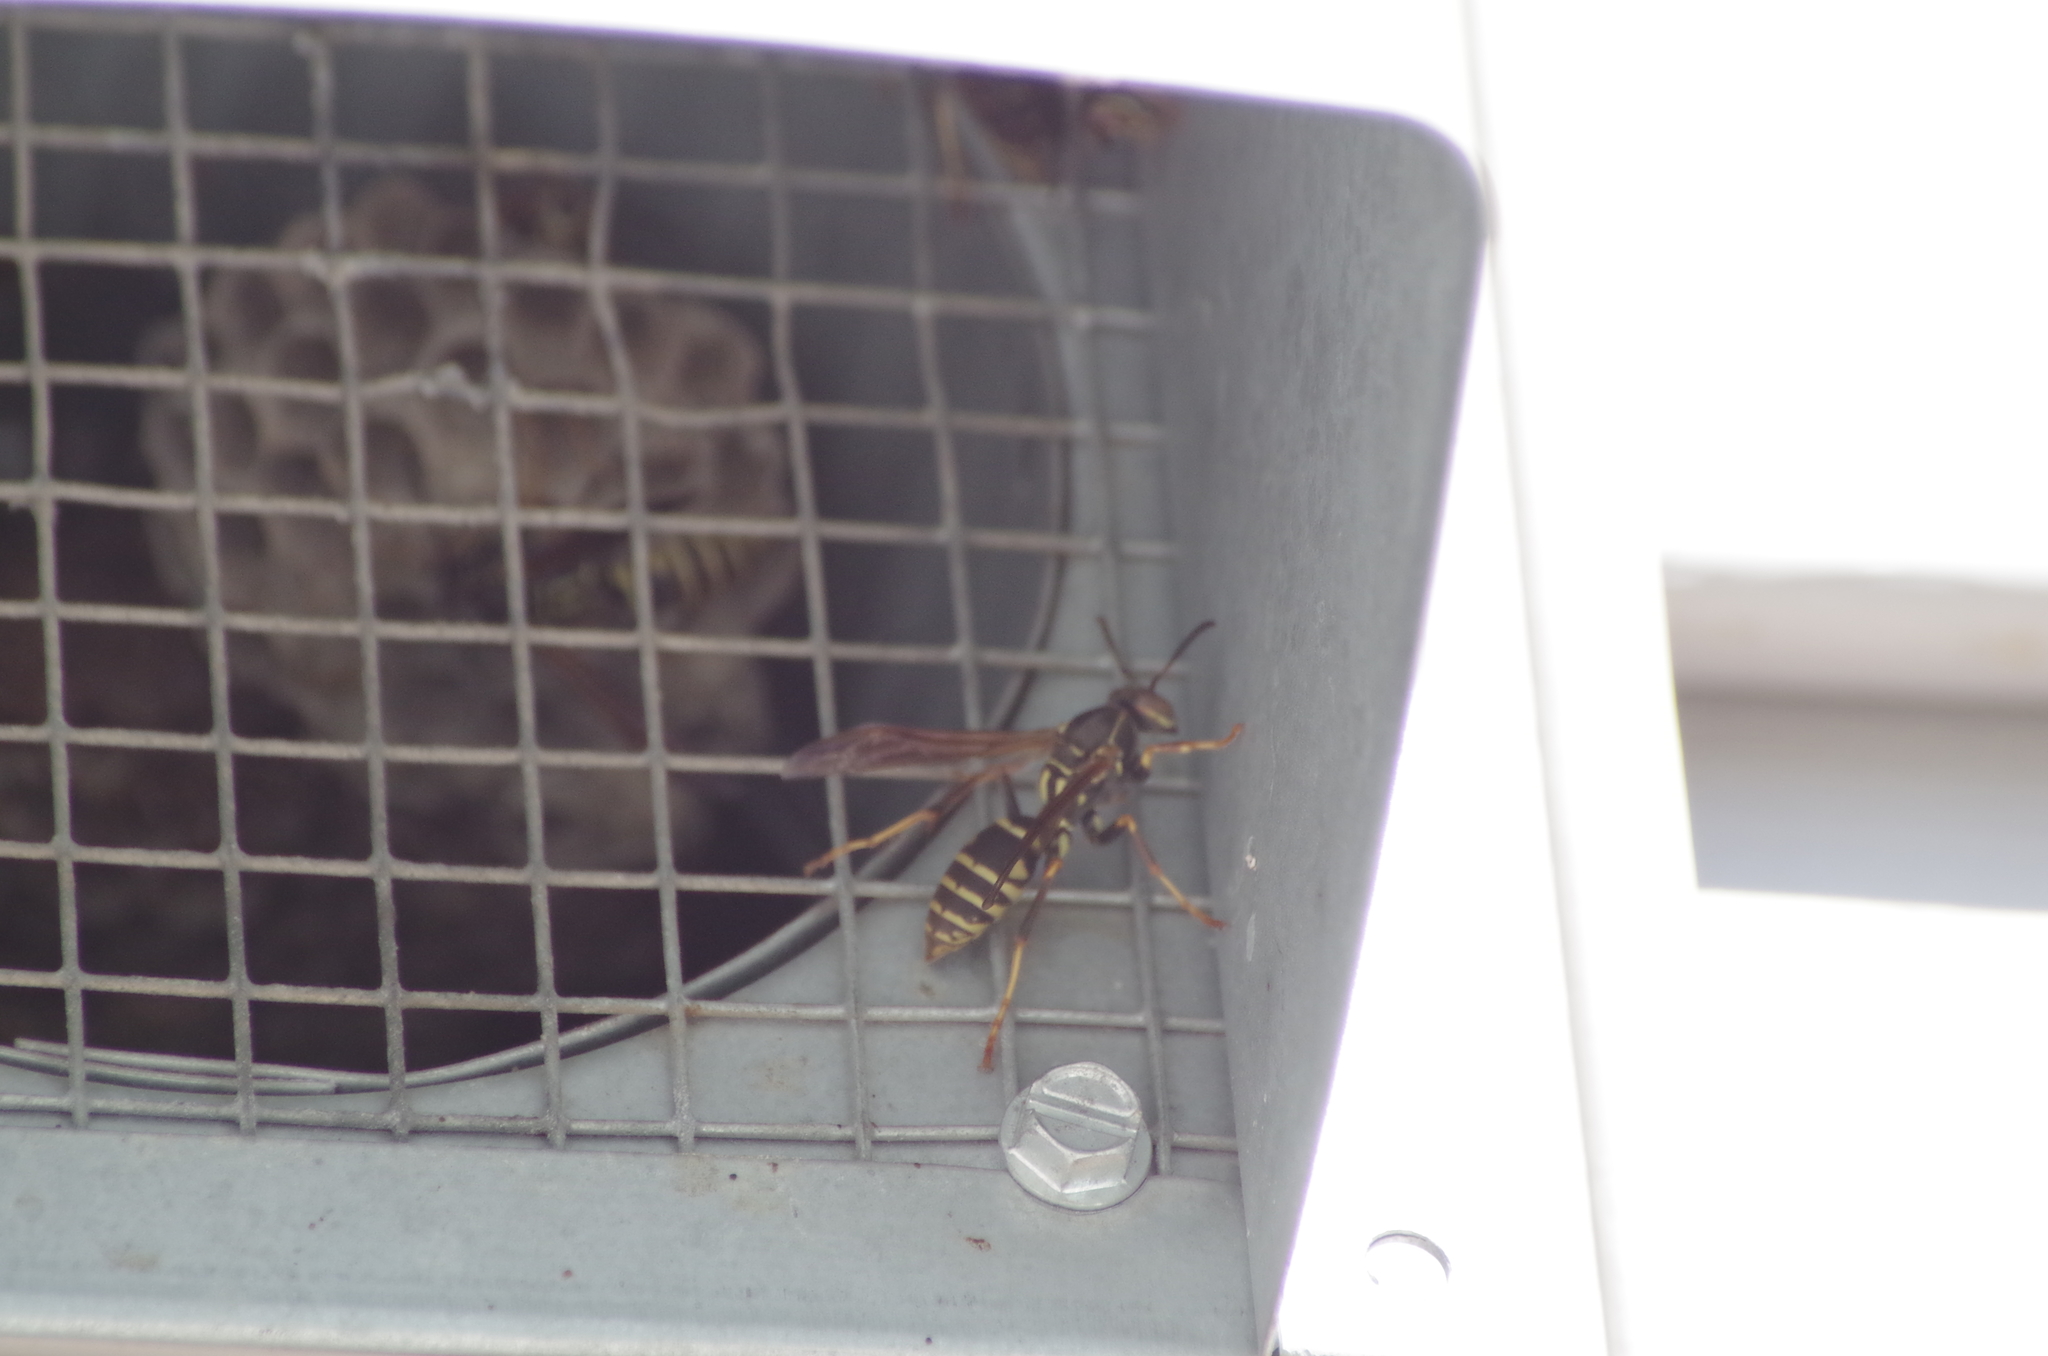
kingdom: Animalia
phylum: Arthropoda
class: Insecta
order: Hymenoptera
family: Eumenidae
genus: Polistes
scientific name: Polistes fuscatus
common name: Dark paper wasp
